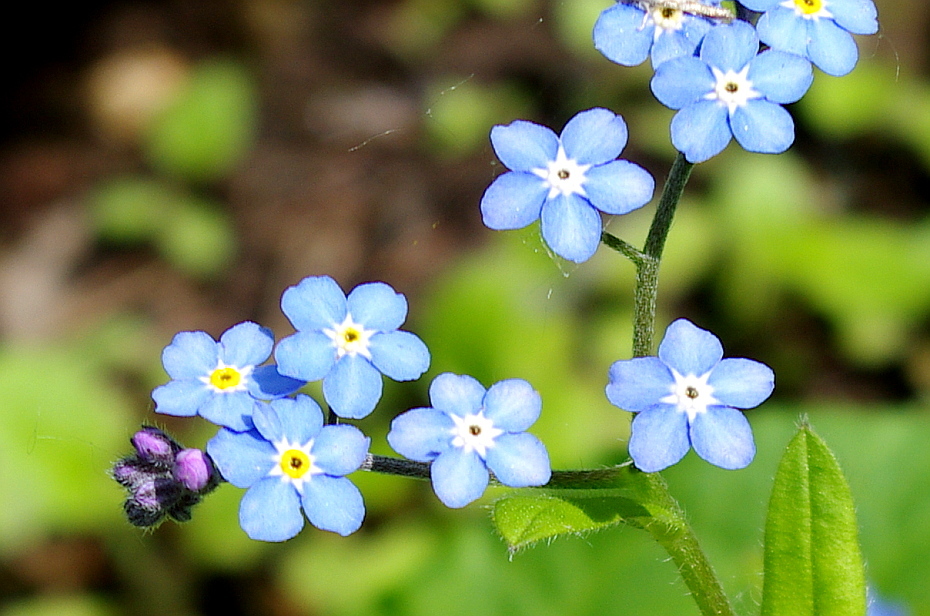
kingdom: Plantae
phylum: Tracheophyta
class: Magnoliopsida
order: Boraginales
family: Boraginaceae
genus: Myosotis
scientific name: Myosotis sylvatica
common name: Wood forget-me-not
